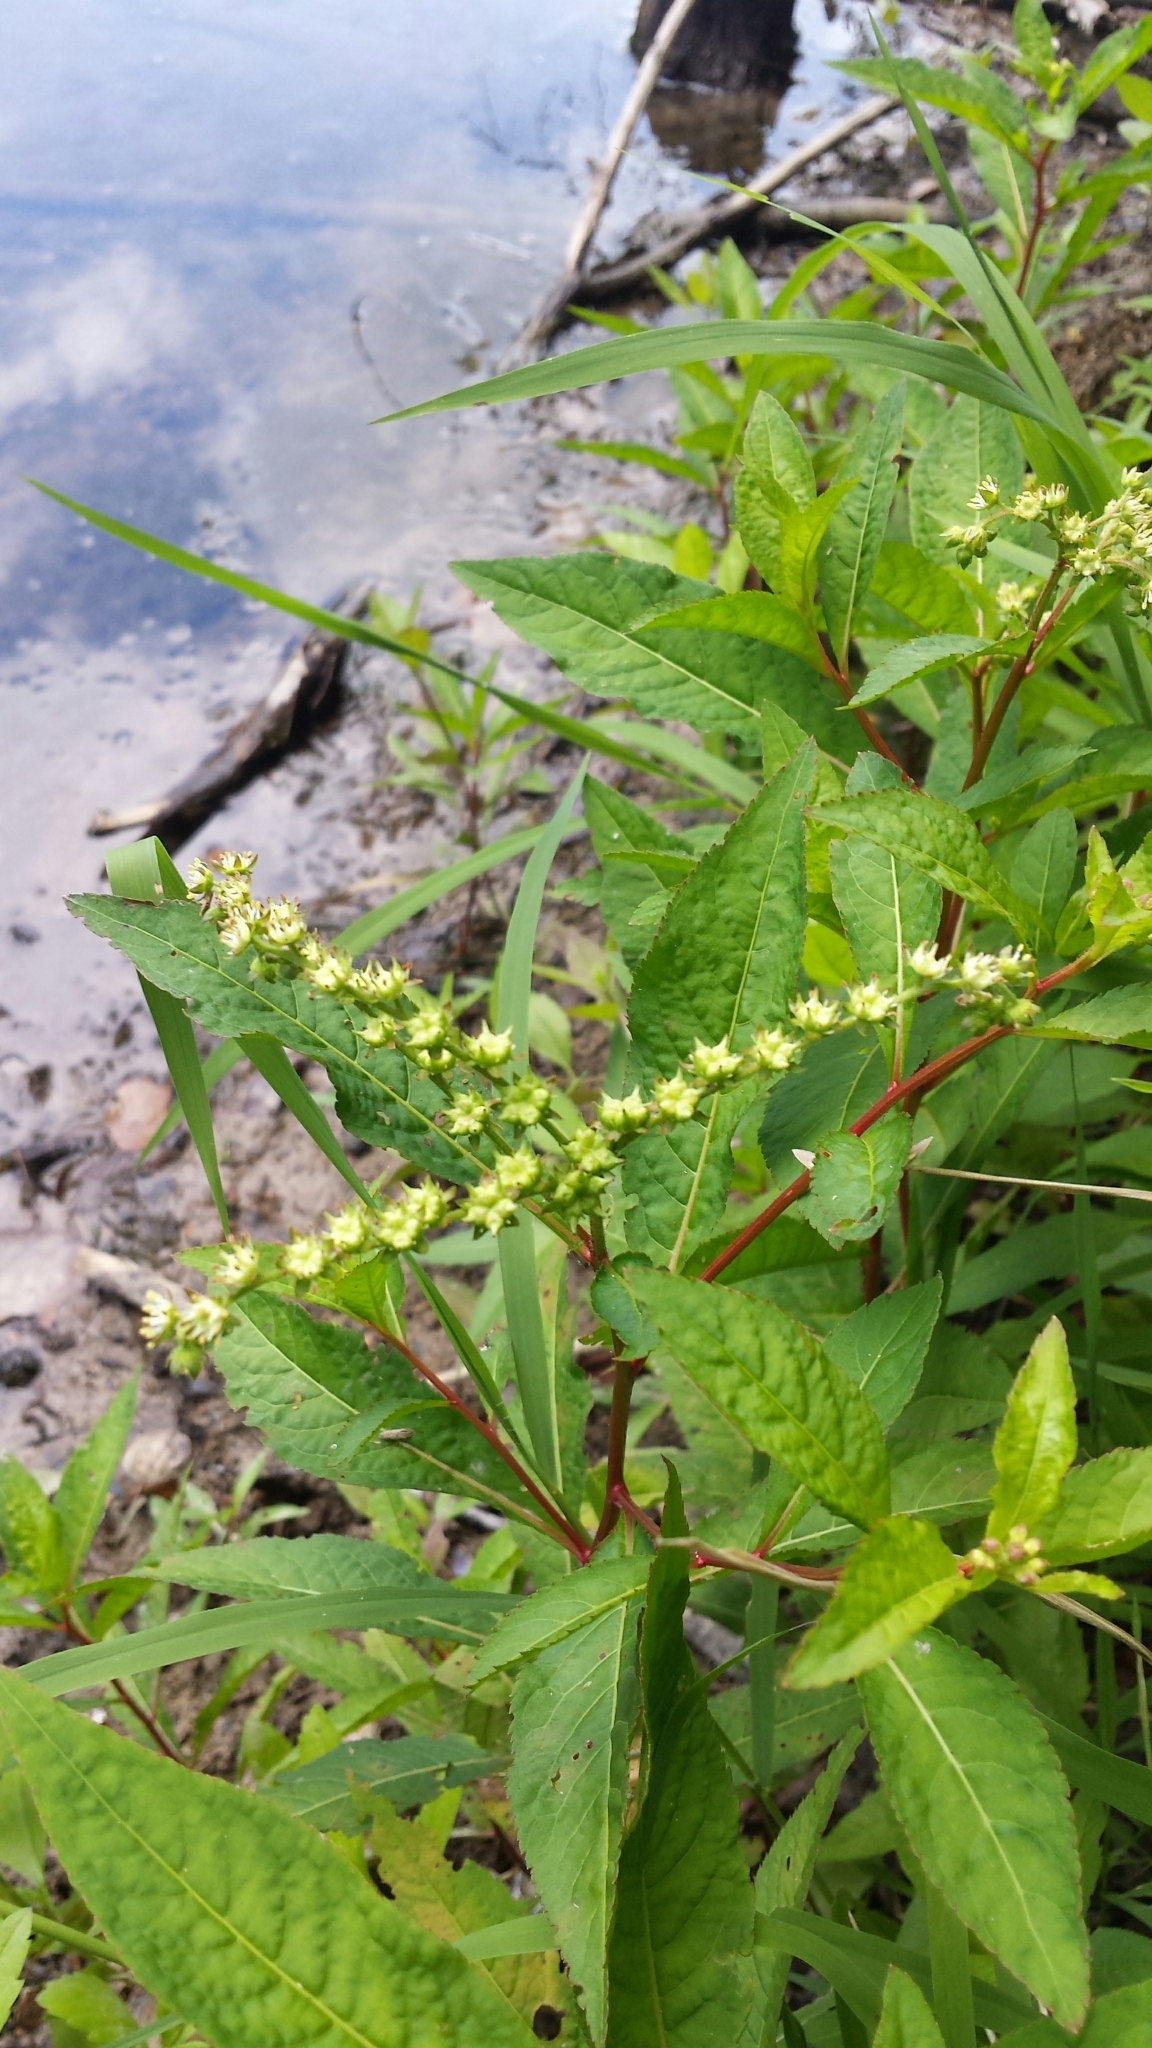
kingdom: Plantae
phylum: Tracheophyta
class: Magnoliopsida
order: Saxifragales
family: Penthoraceae
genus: Penthorum
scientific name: Penthorum sedoides
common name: Ditch stonecrop
